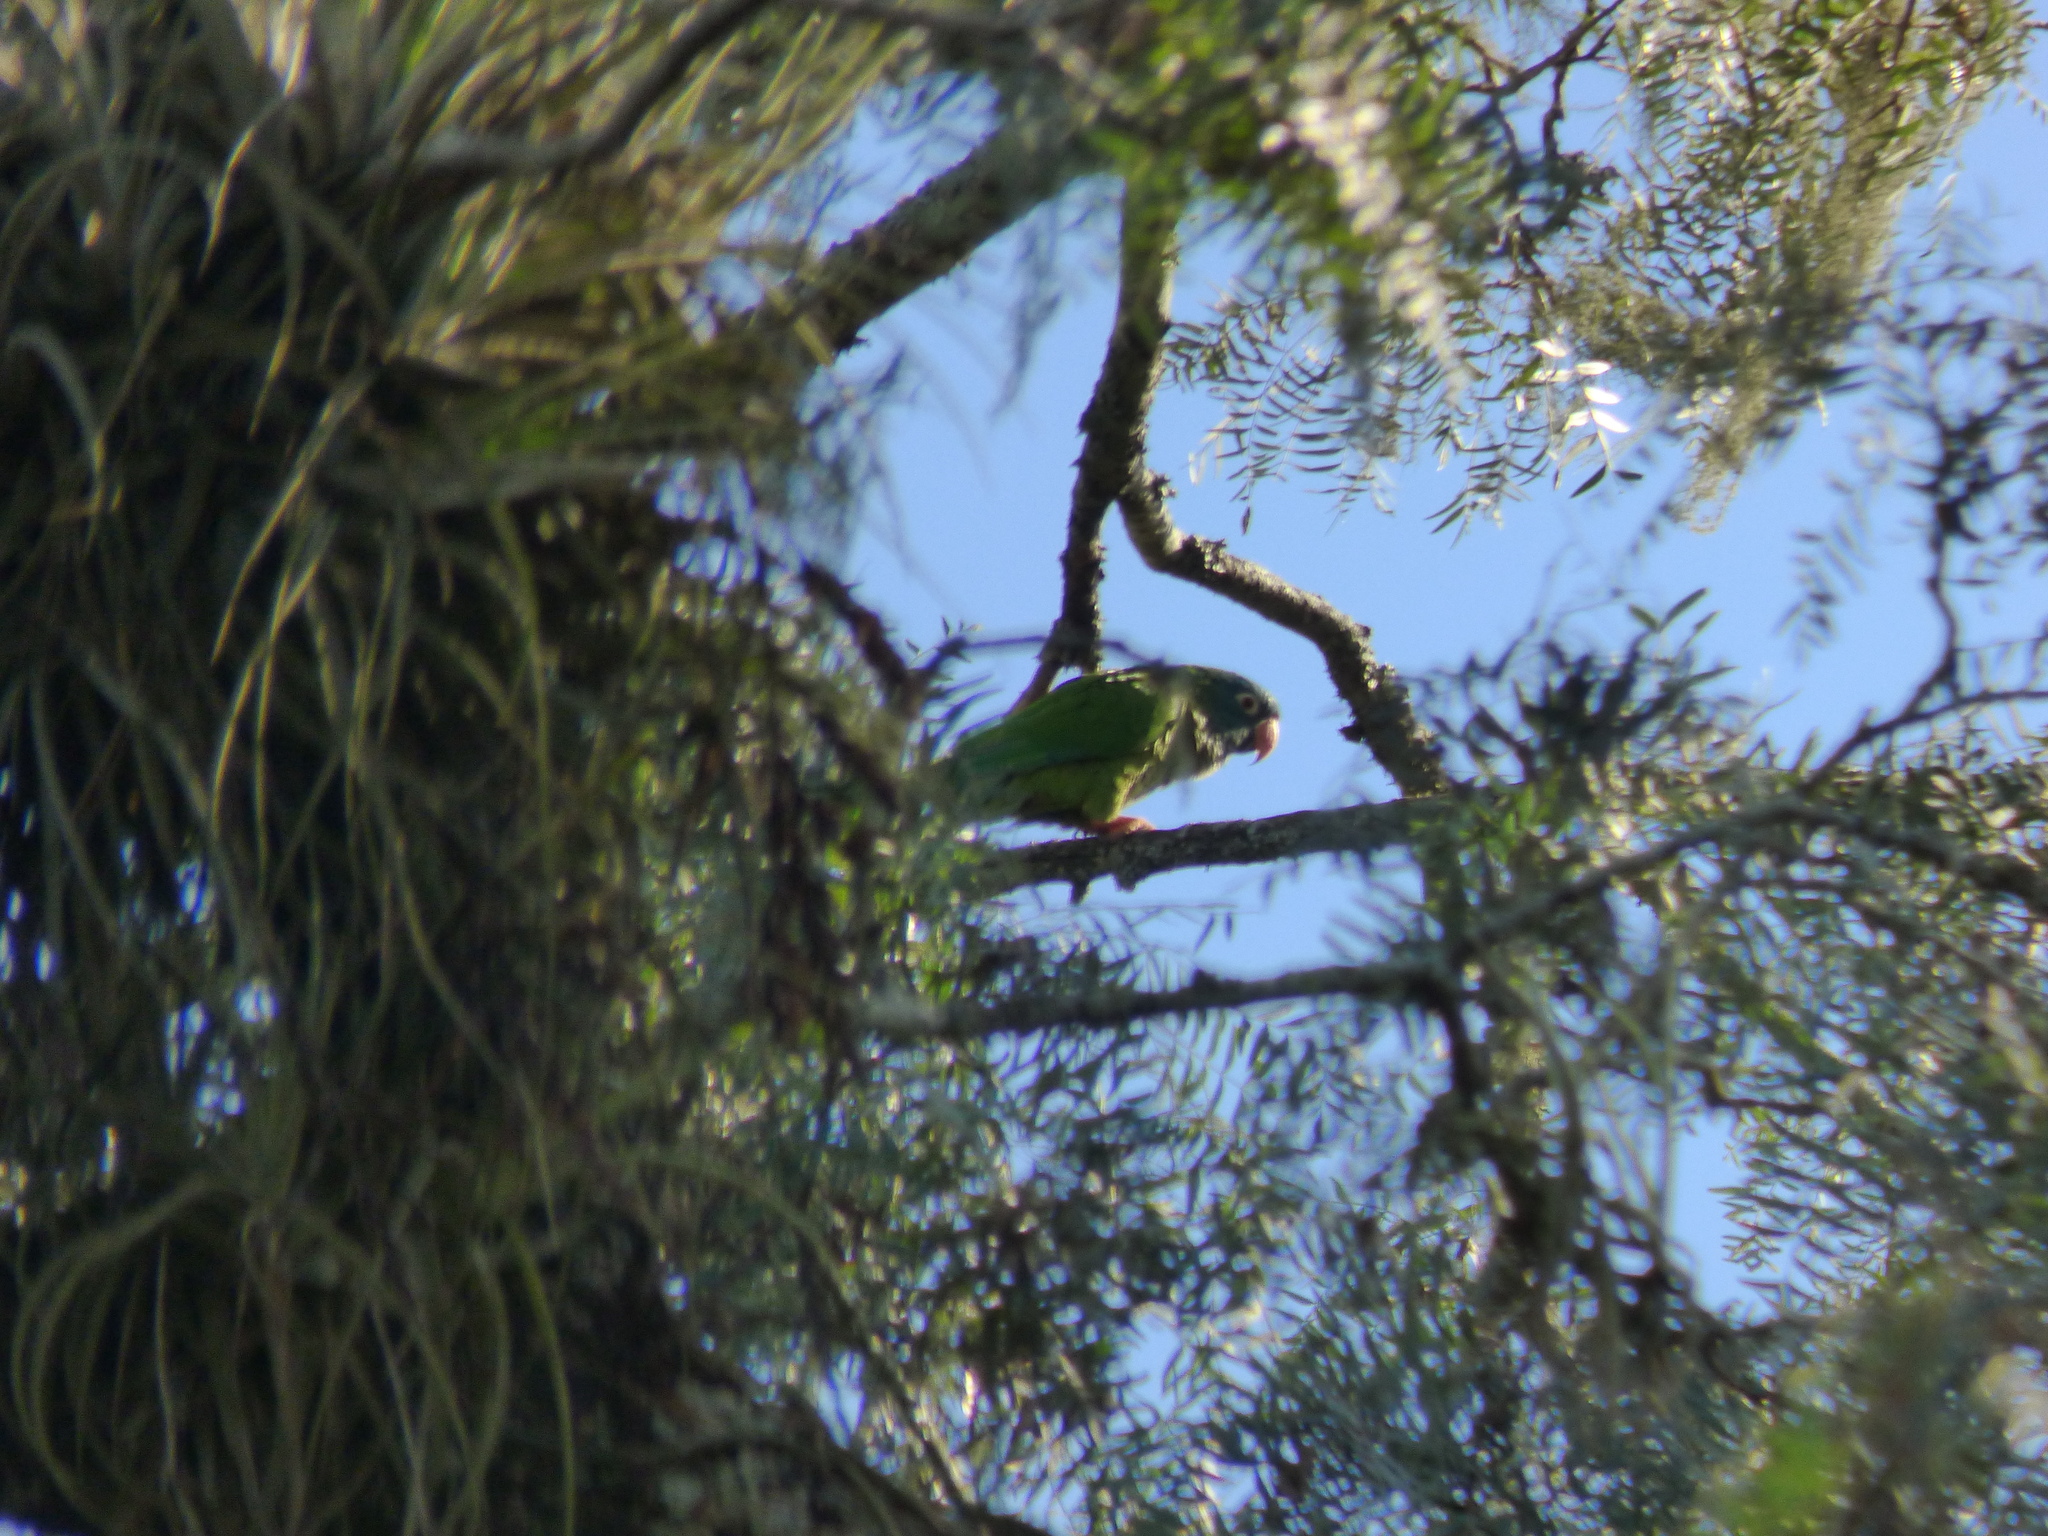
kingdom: Animalia
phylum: Chordata
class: Aves
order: Psittaciformes
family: Psittacidae
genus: Aratinga
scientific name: Aratinga acuticaudata
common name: Blue-crowned parakeet
